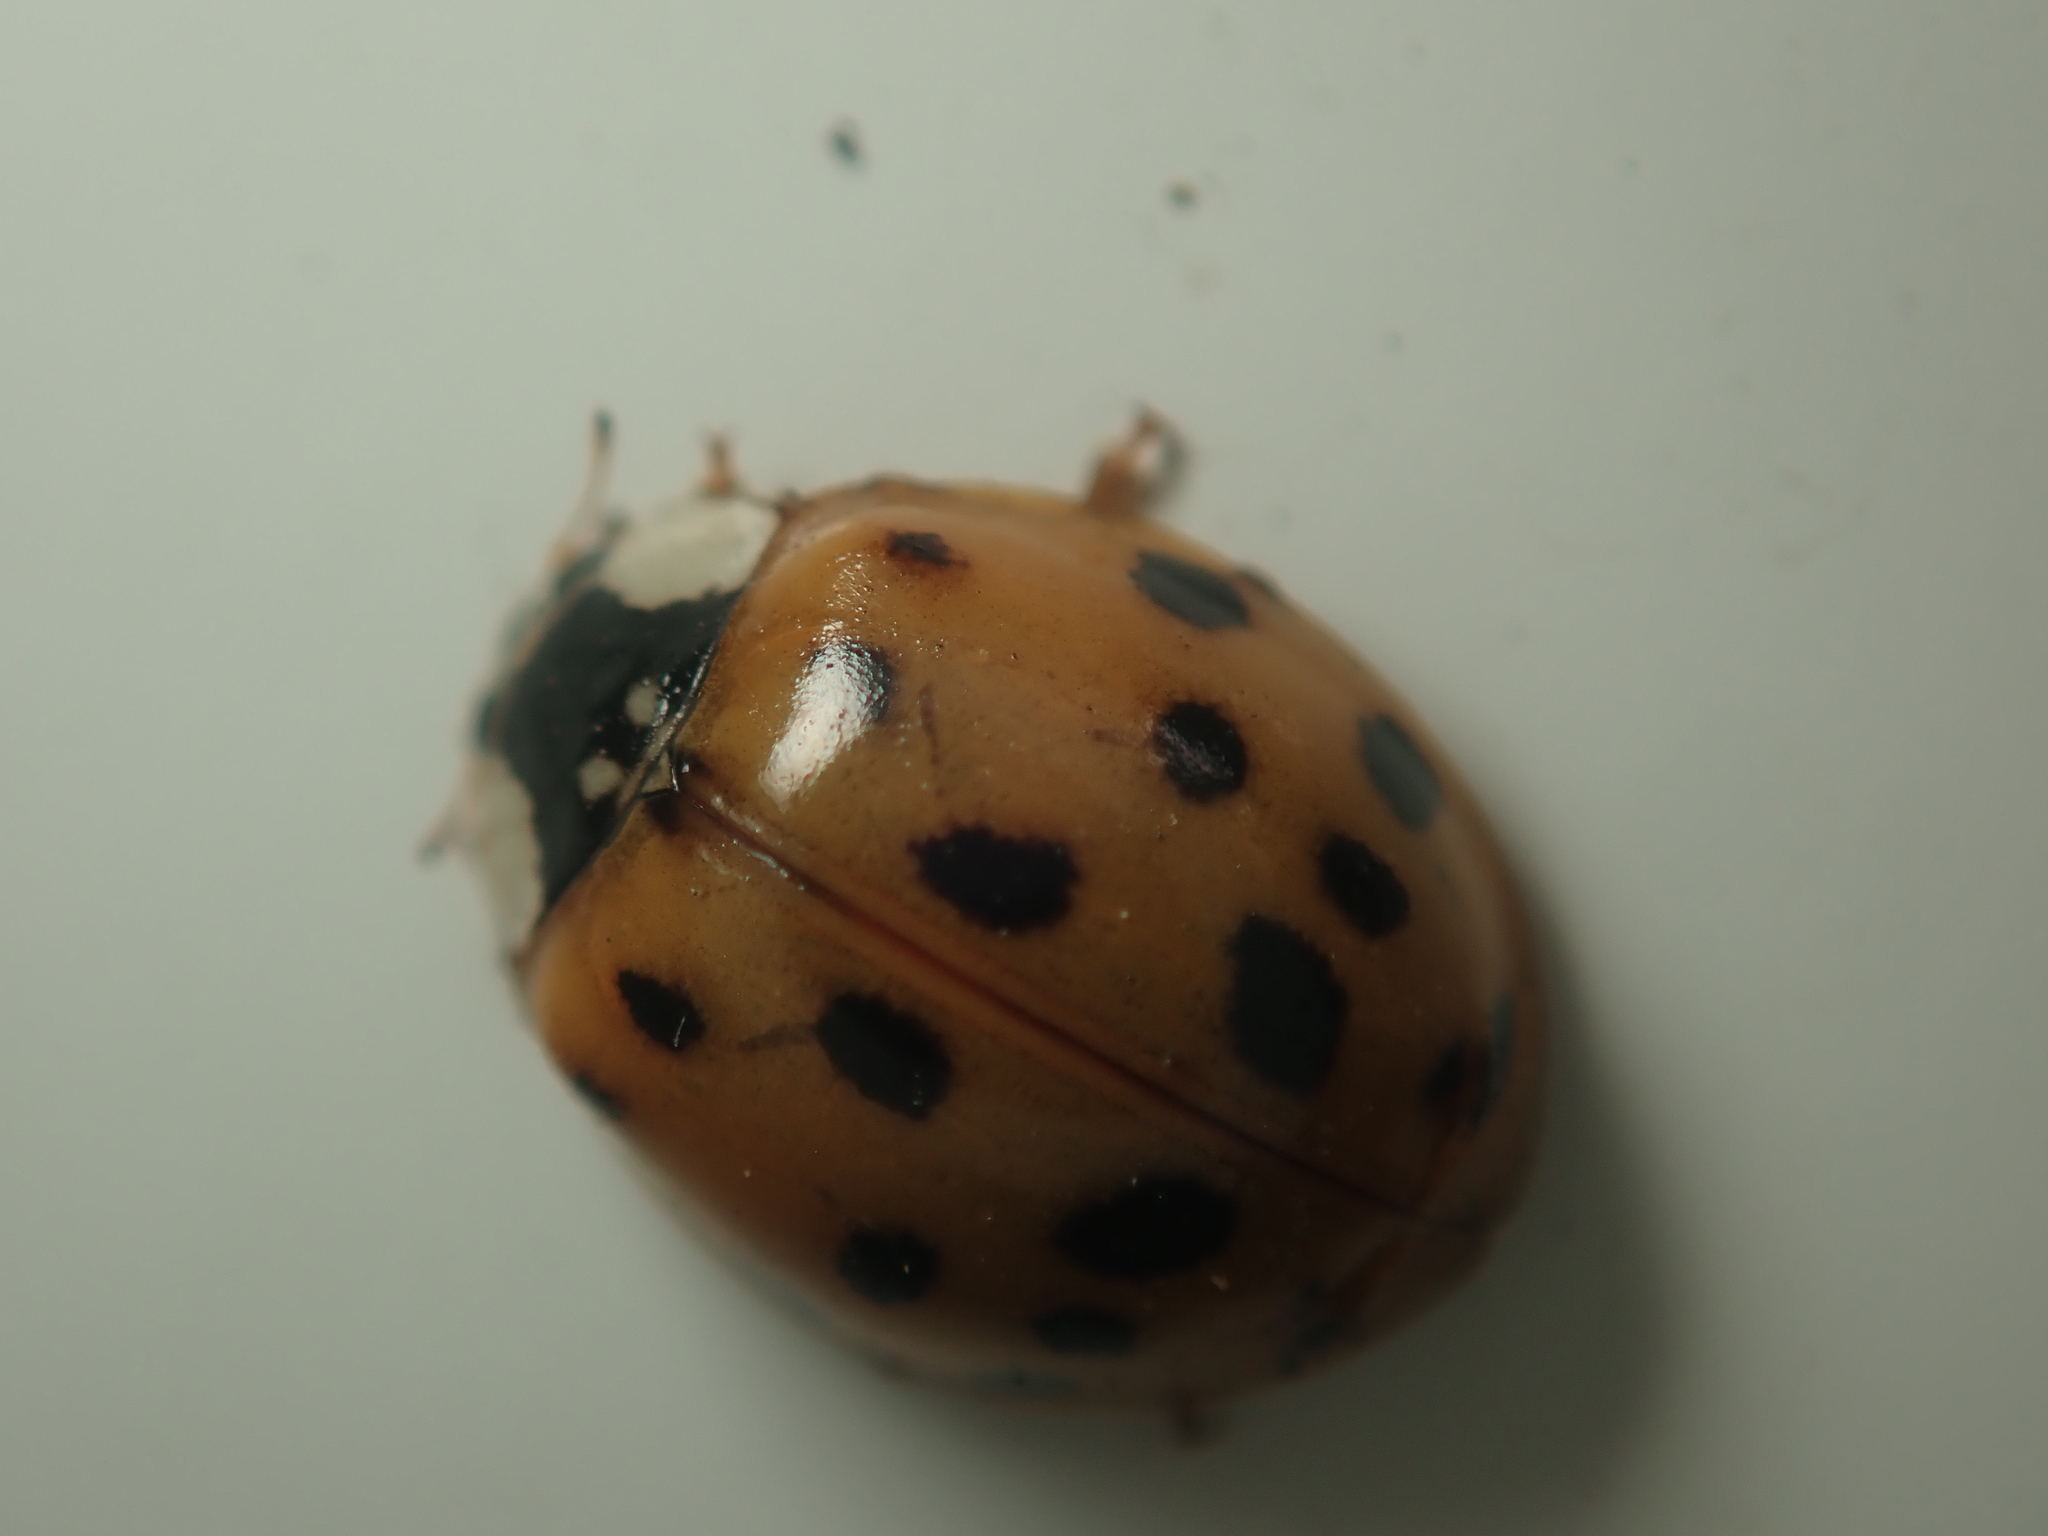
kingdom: Animalia
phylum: Arthropoda
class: Insecta
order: Coleoptera
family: Coccinellidae
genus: Harmonia
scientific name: Harmonia axyridis
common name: Harlequin ladybird
